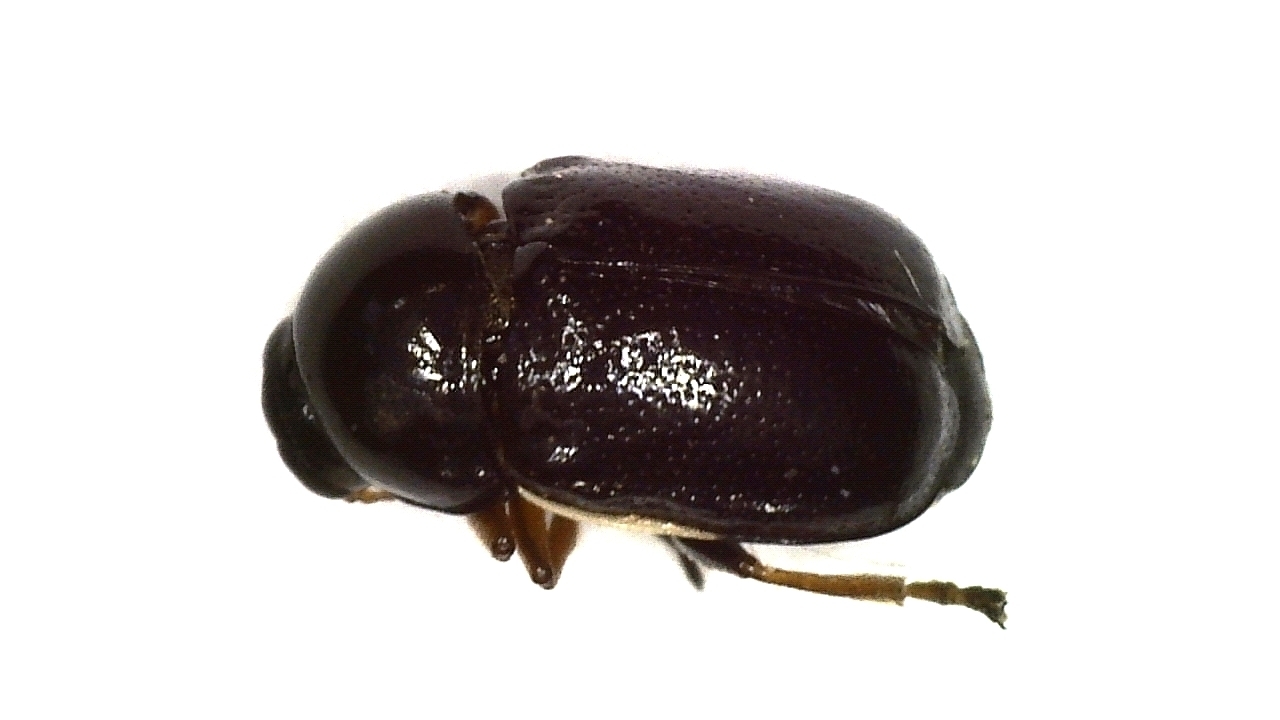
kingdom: Animalia
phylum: Arthropoda
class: Insecta
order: Coleoptera
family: Chrysomelidae
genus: Cryptocephalus
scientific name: Cryptocephalus bameuli
